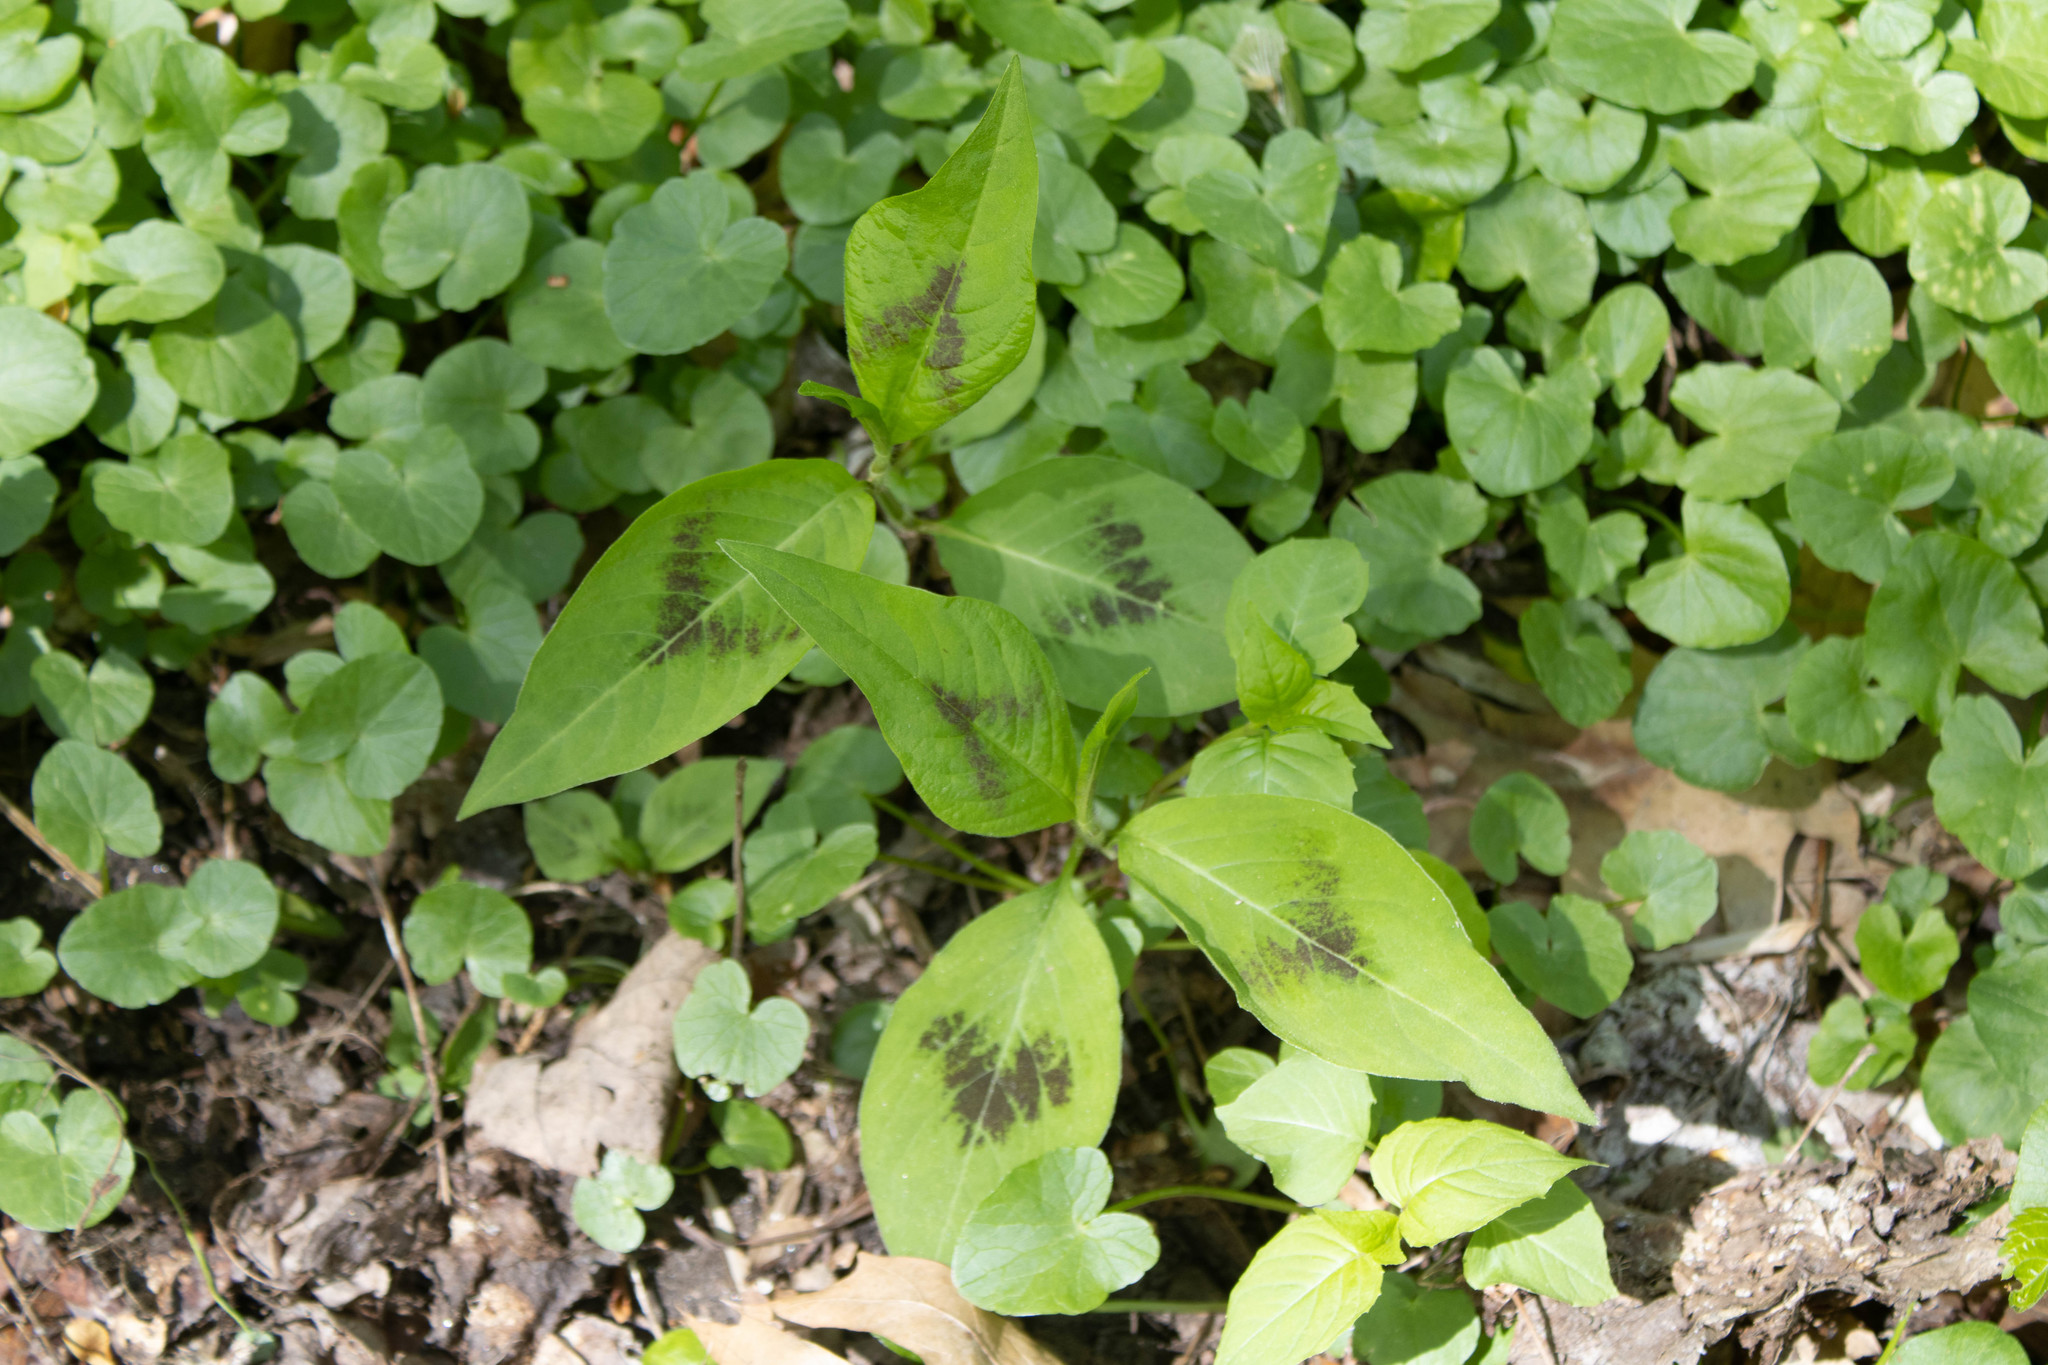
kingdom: Plantae
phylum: Tracheophyta
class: Magnoliopsida
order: Caryophyllales
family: Polygonaceae
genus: Persicaria
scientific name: Persicaria virginiana
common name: Jumpseed
